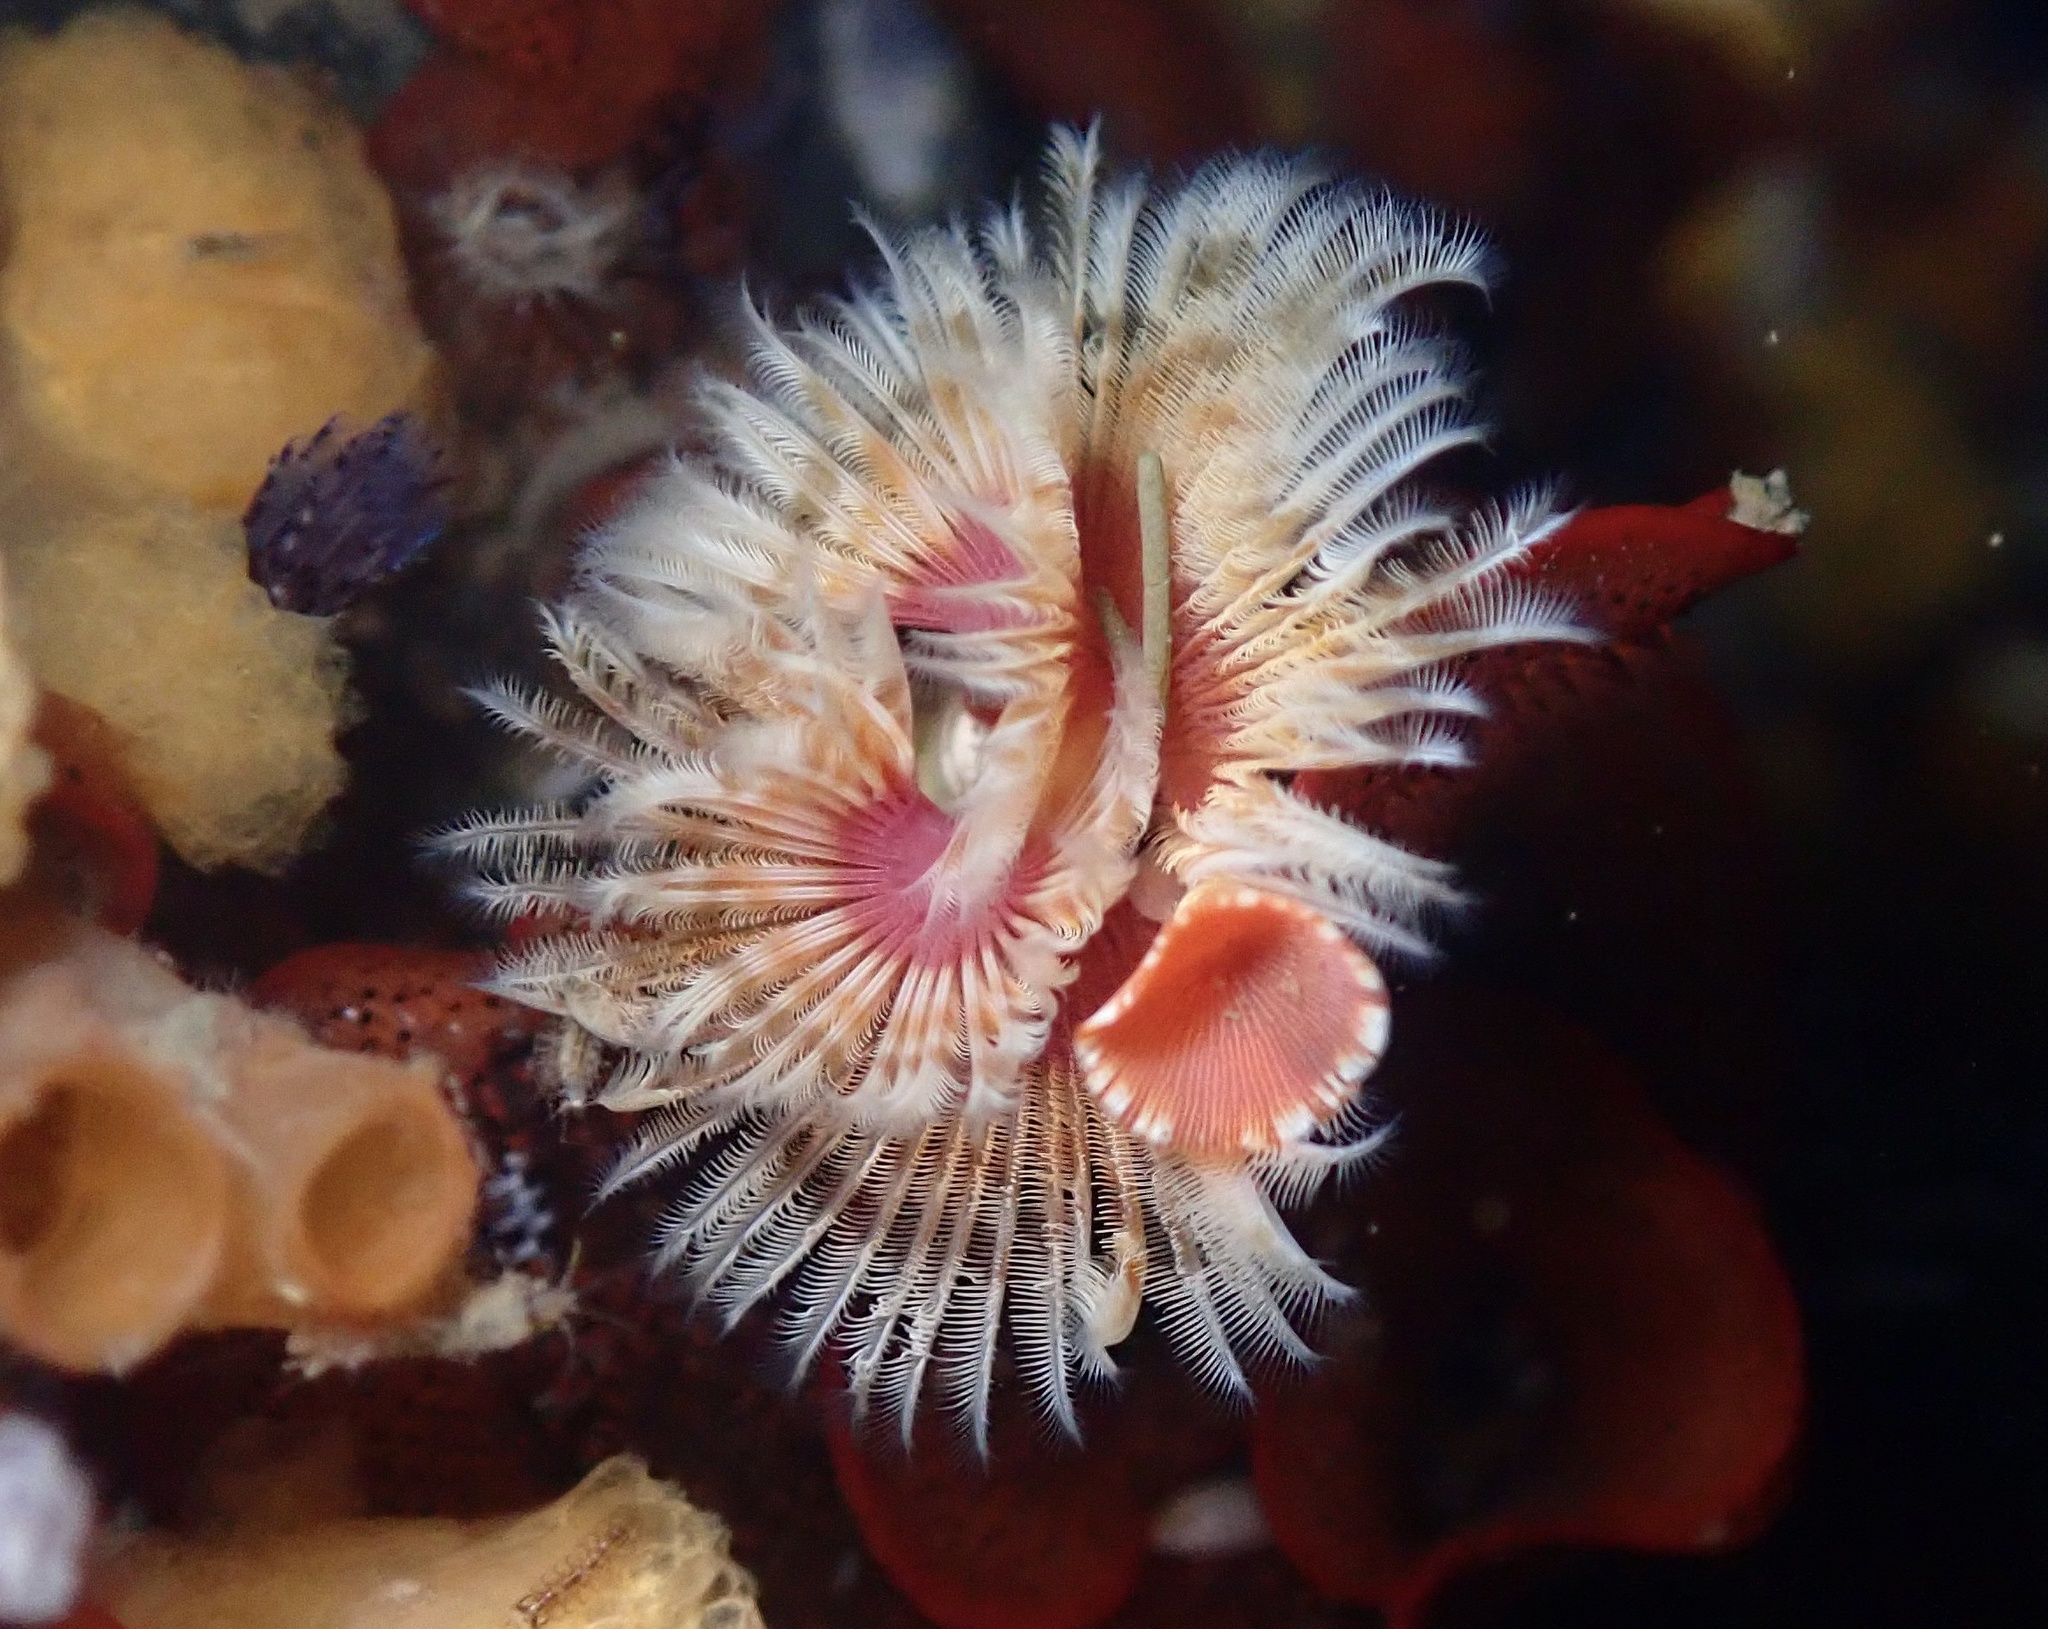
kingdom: Animalia
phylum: Annelida
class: Polychaeta
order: Sabellida
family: Serpulidae
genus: Serpula
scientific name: Serpula columbiana
